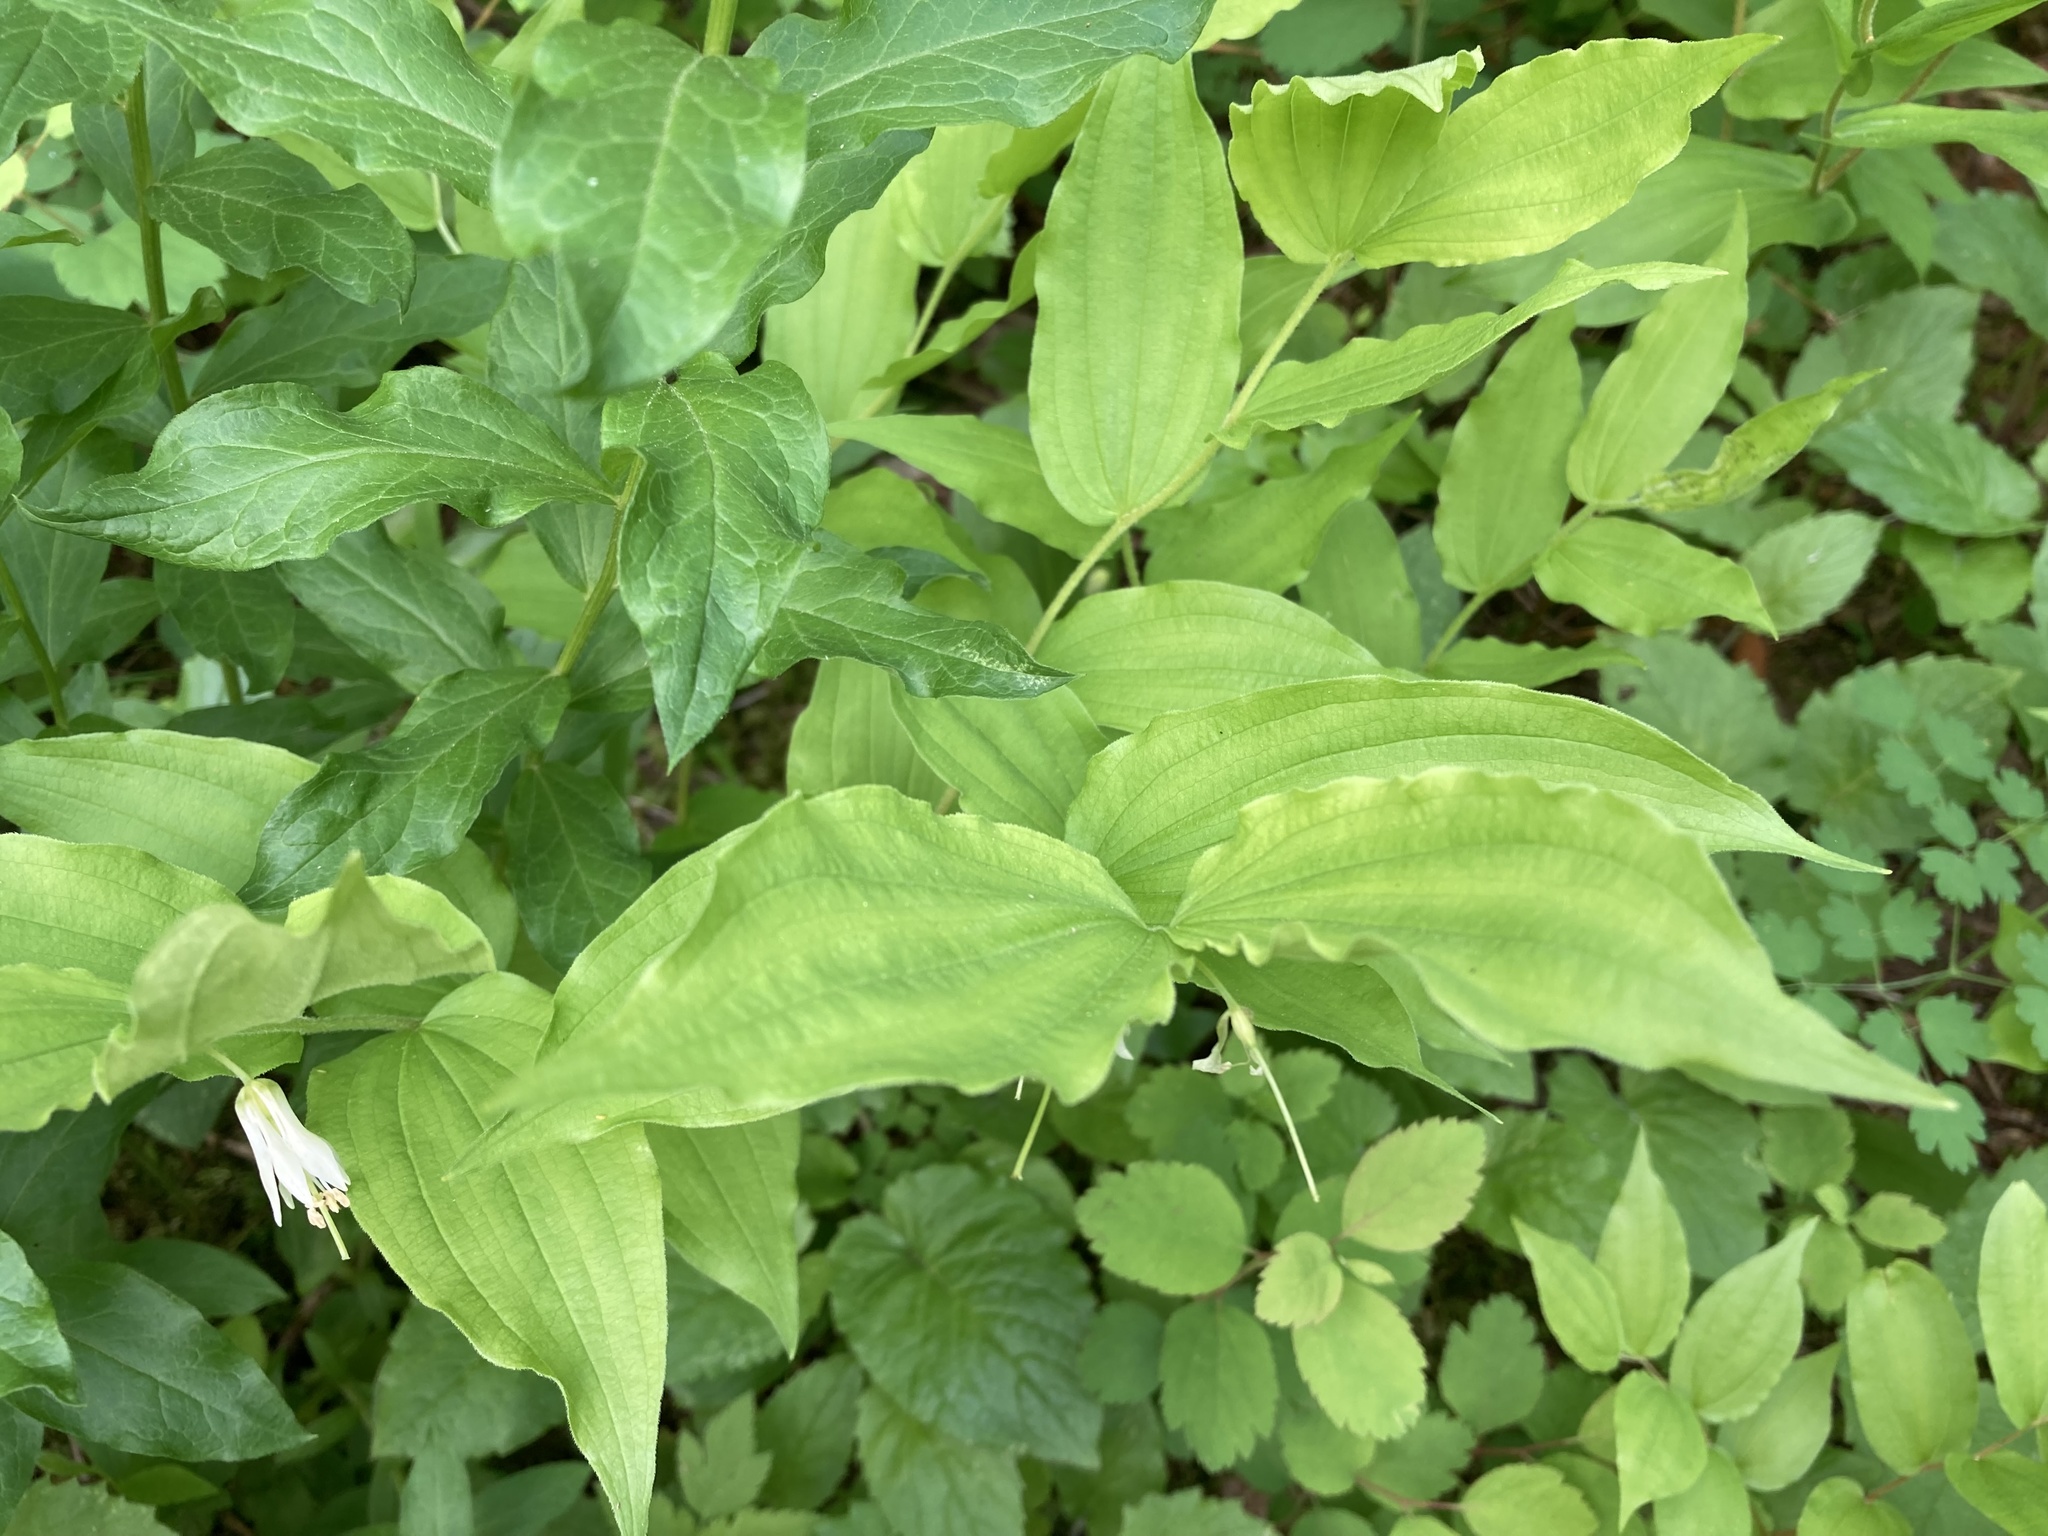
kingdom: Plantae
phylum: Tracheophyta
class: Liliopsida
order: Liliales
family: Liliaceae
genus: Prosartes
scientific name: Prosartes hookeri
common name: Fairy-bells
